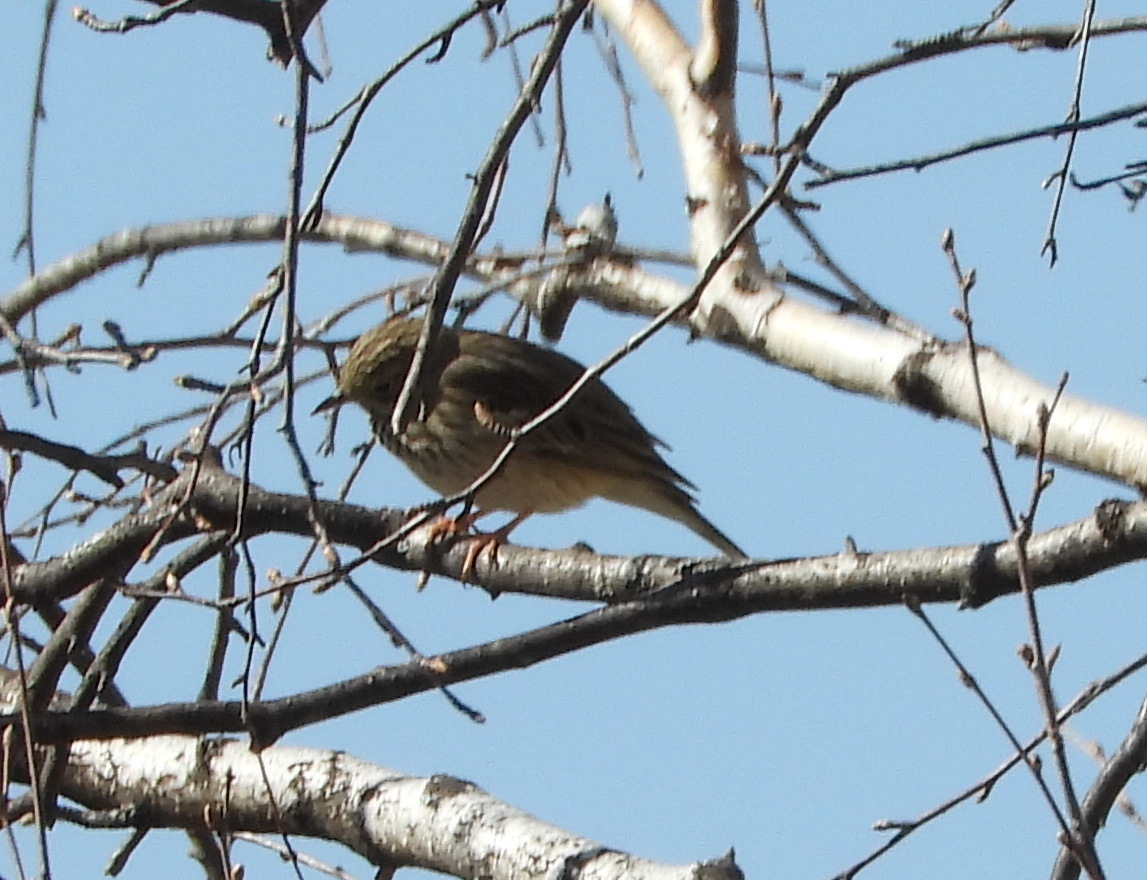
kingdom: Animalia
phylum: Chordata
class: Aves
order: Passeriformes
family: Motacillidae
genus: Anthus
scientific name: Anthus trivialis
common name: Tree pipit
